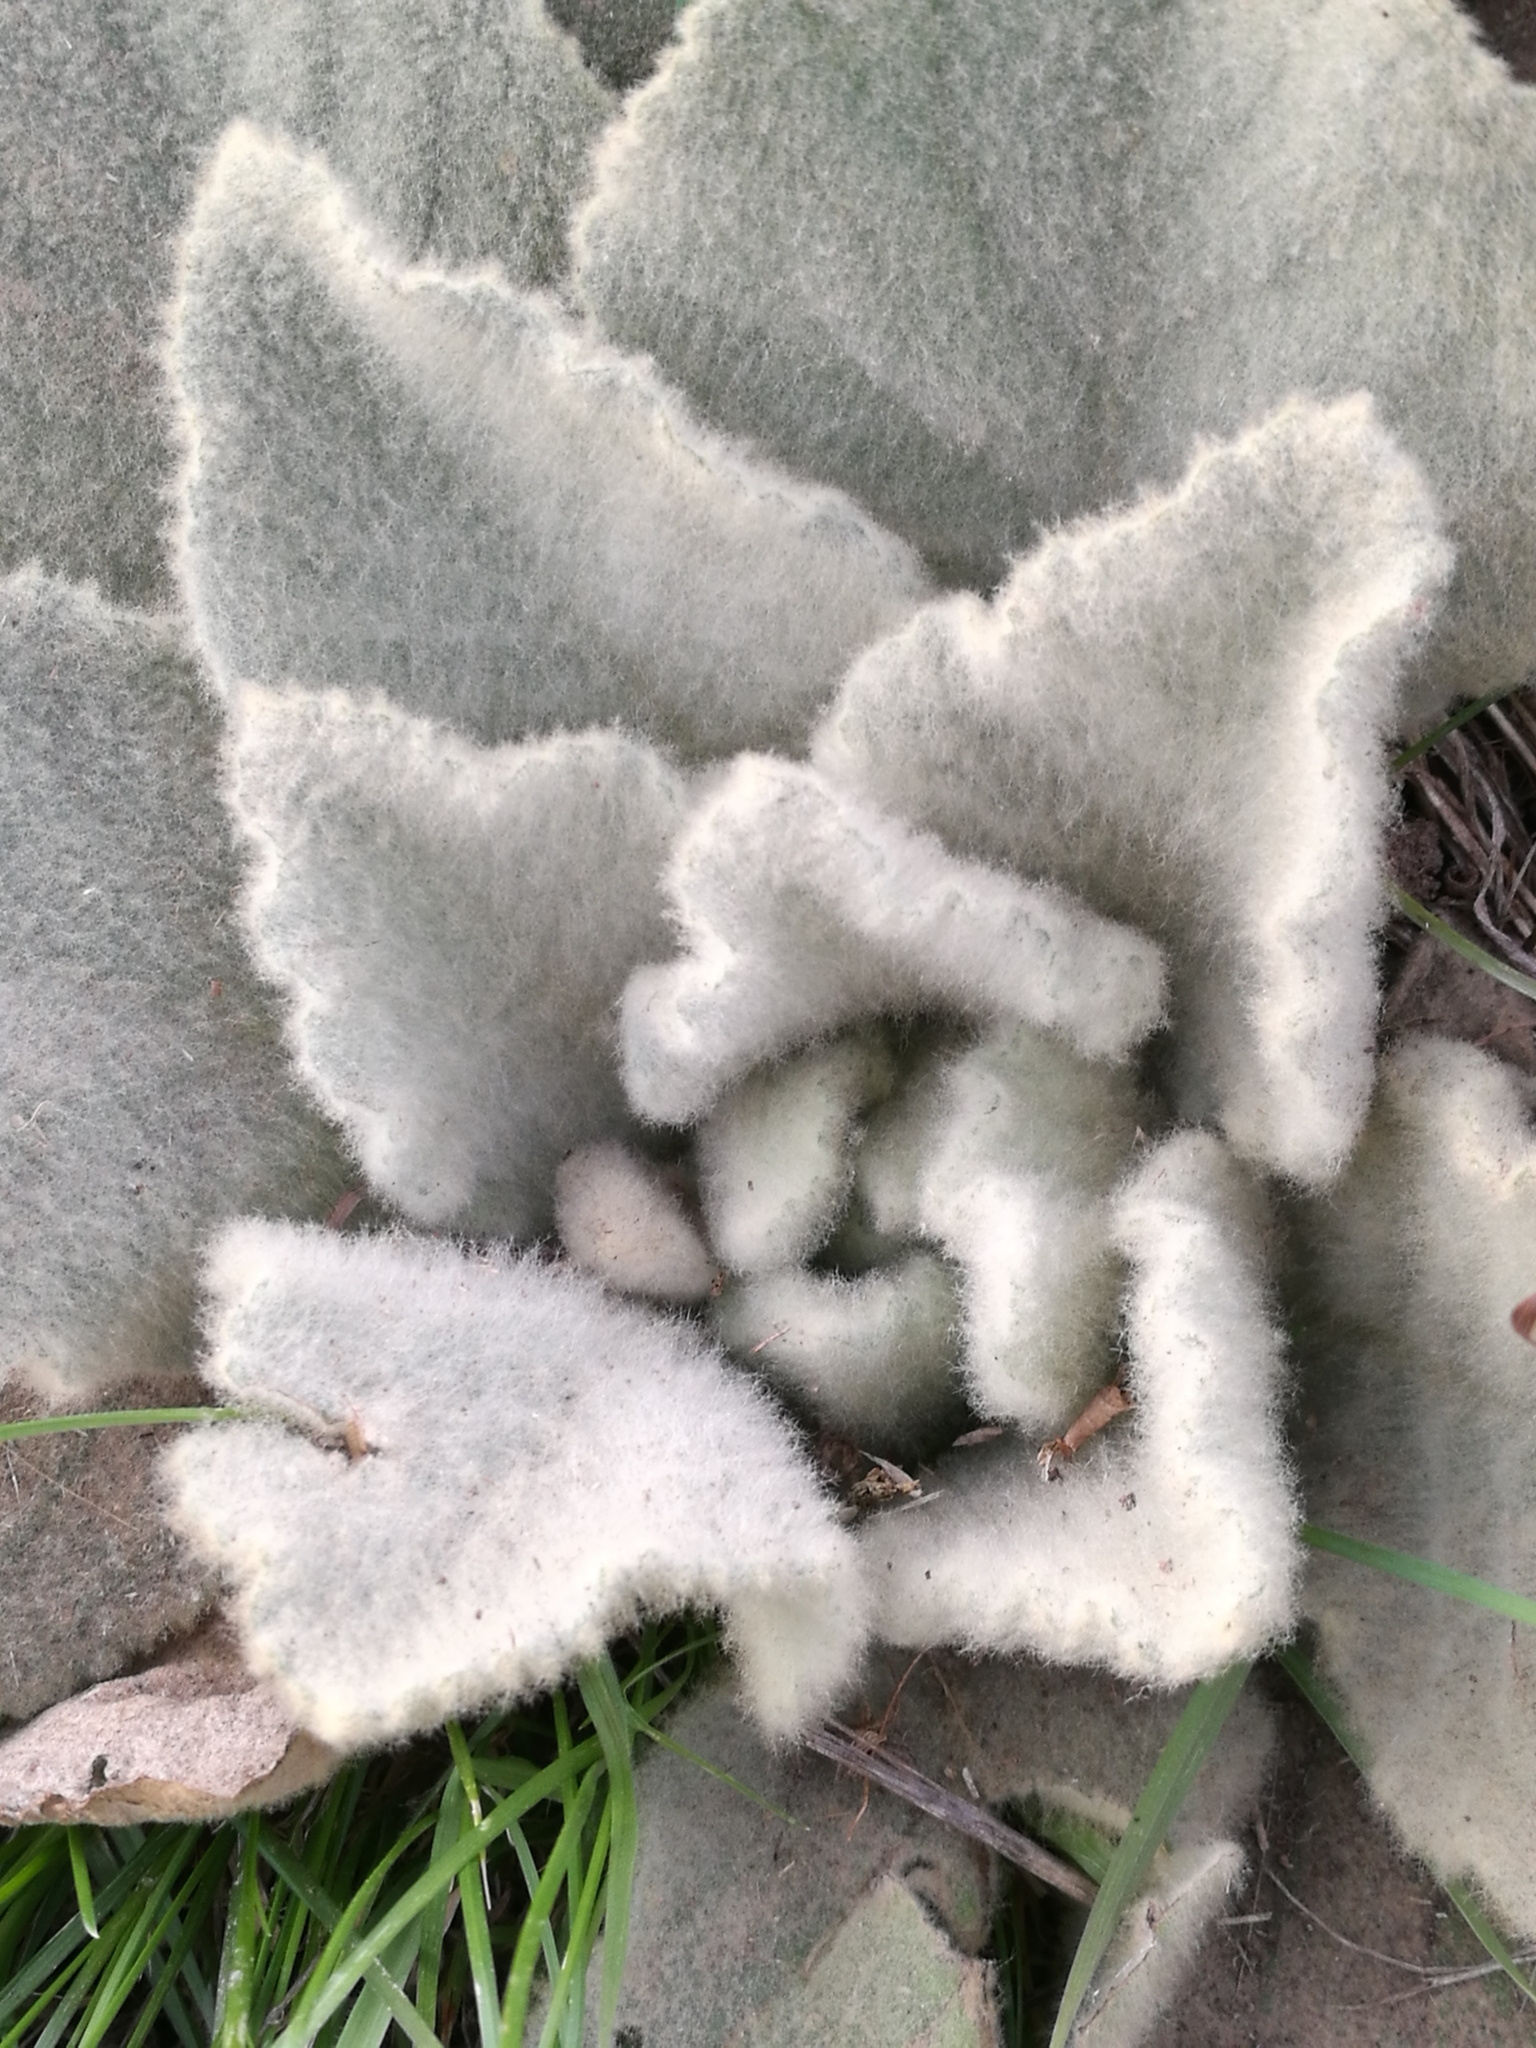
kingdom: Plantae
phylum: Tracheophyta
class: Magnoliopsida
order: Lamiales
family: Scrophulariaceae
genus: Verbascum
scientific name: Verbascum thapsus
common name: Common mullein
